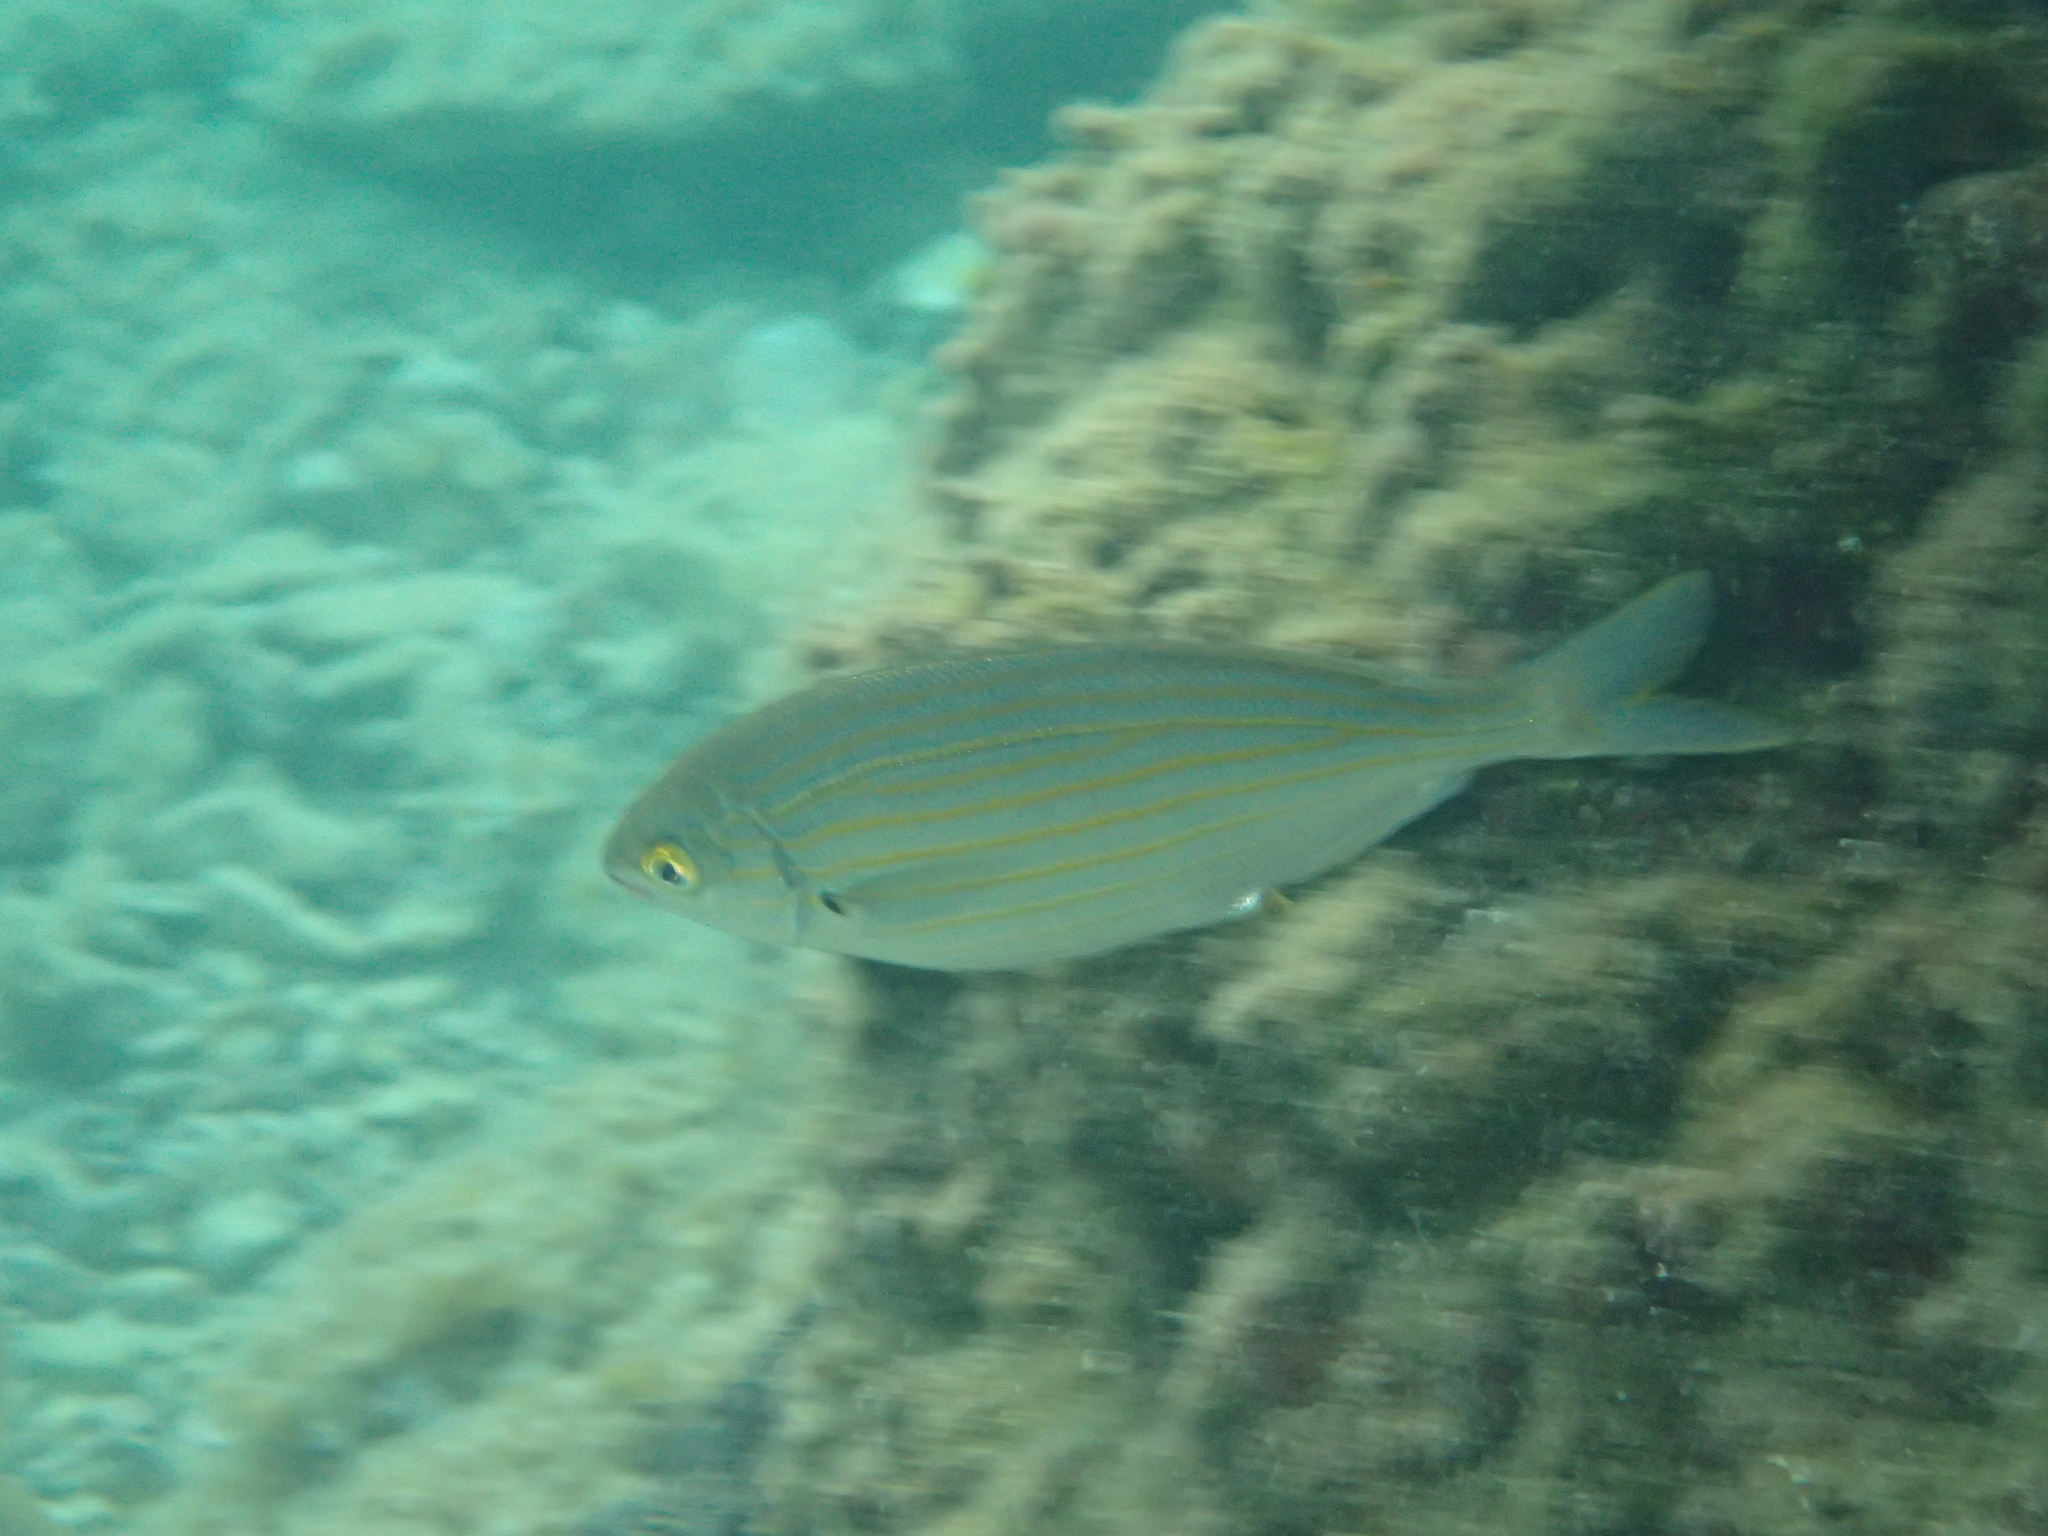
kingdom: Animalia
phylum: Chordata
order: Perciformes
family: Sparidae
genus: Sarpa
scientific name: Sarpa salpa
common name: Salema
